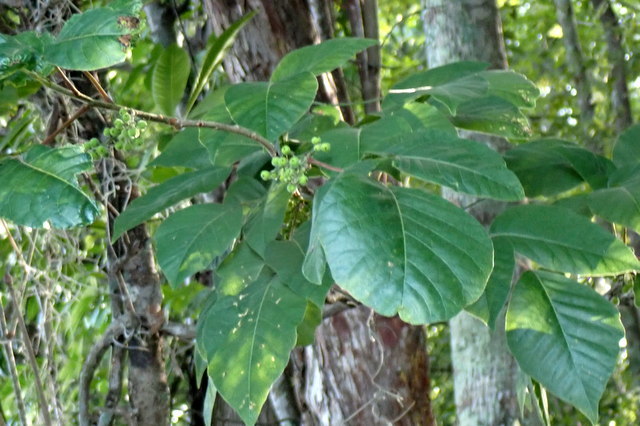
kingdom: Plantae
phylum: Tracheophyta
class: Magnoliopsida
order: Sapindales
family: Anacardiaceae
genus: Toxicodendron
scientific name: Toxicodendron radicans
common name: Poison ivy
